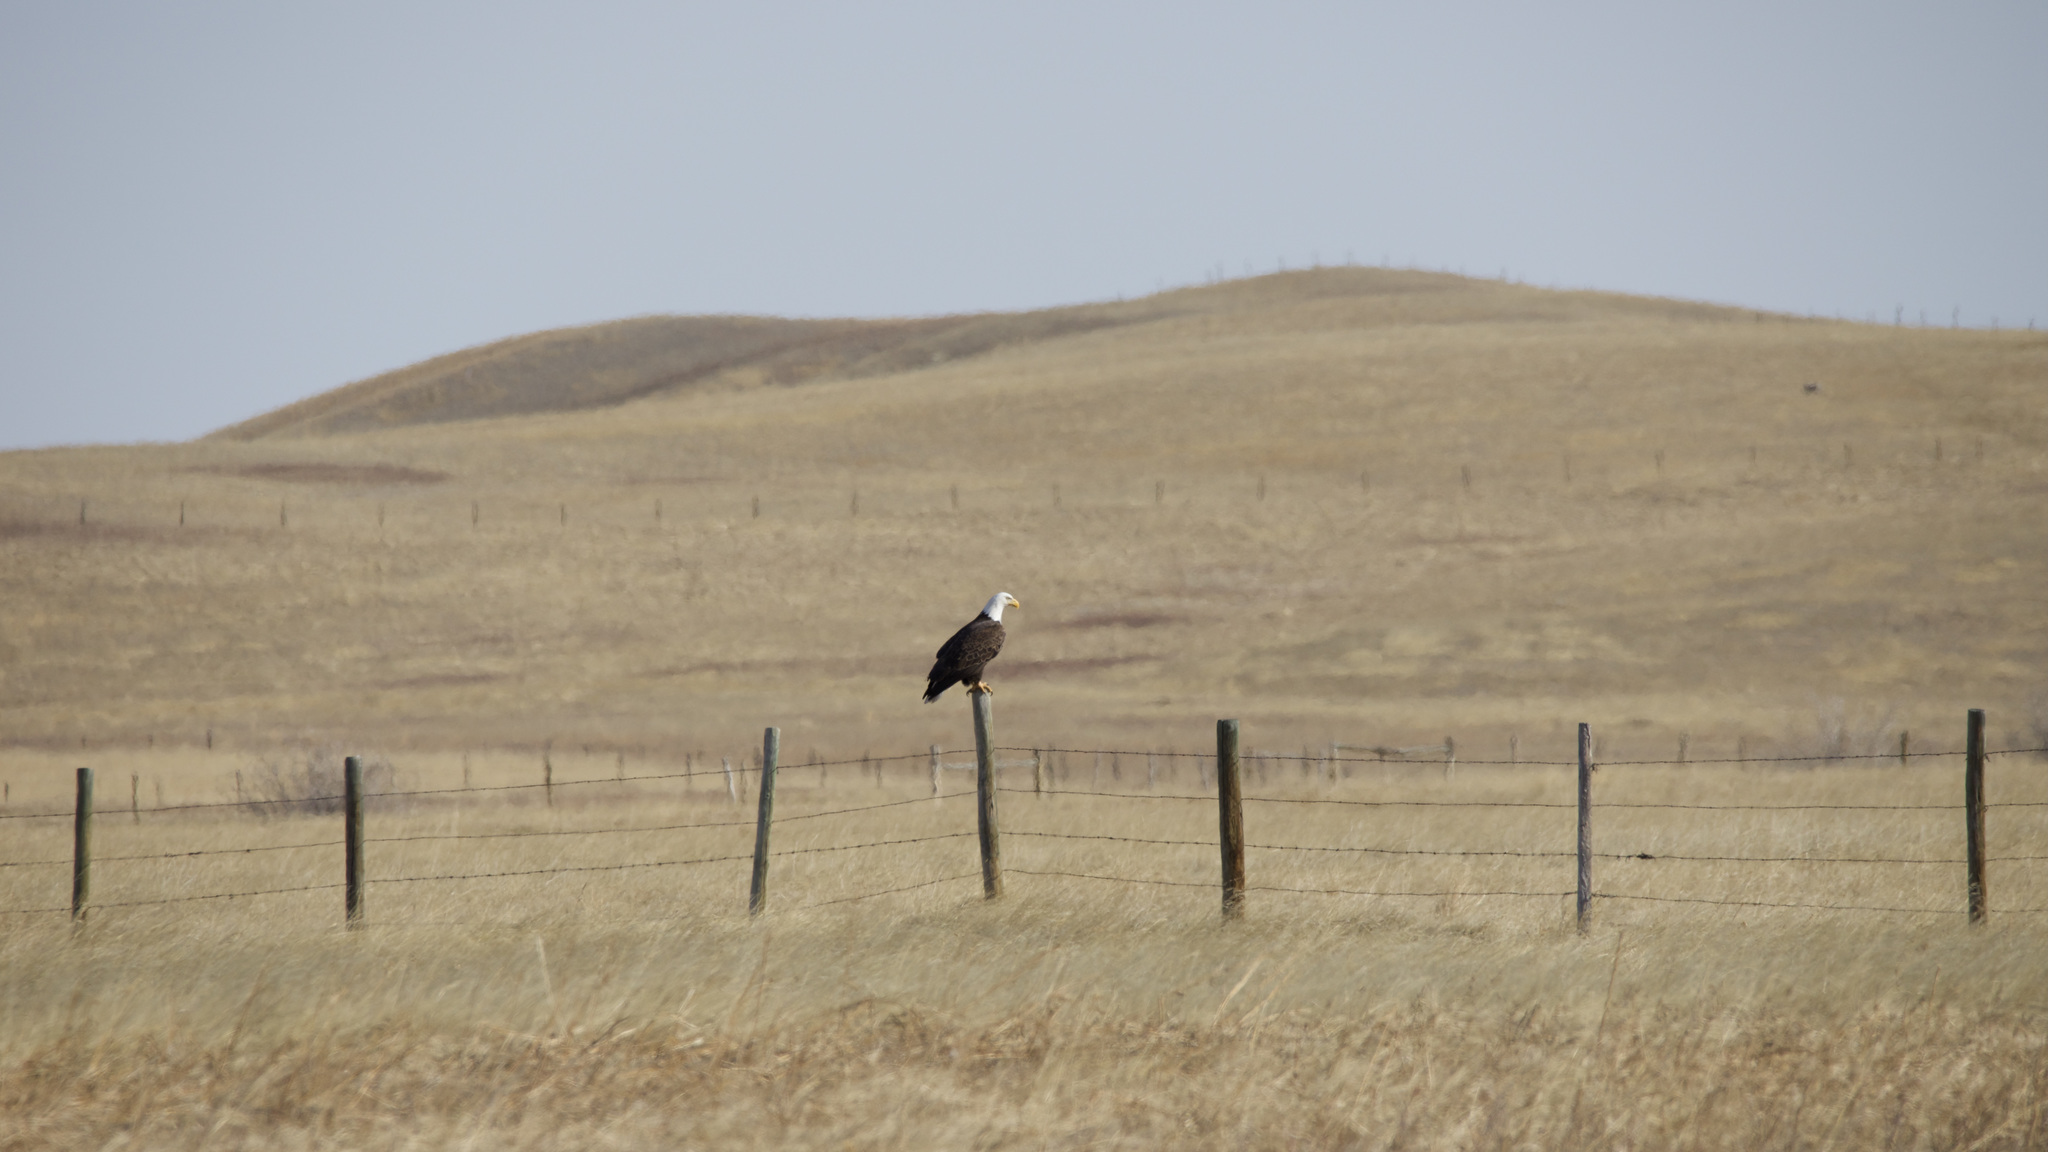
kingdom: Animalia
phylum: Chordata
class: Aves
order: Accipitriformes
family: Accipitridae
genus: Haliaeetus
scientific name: Haliaeetus leucocephalus
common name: Bald eagle
